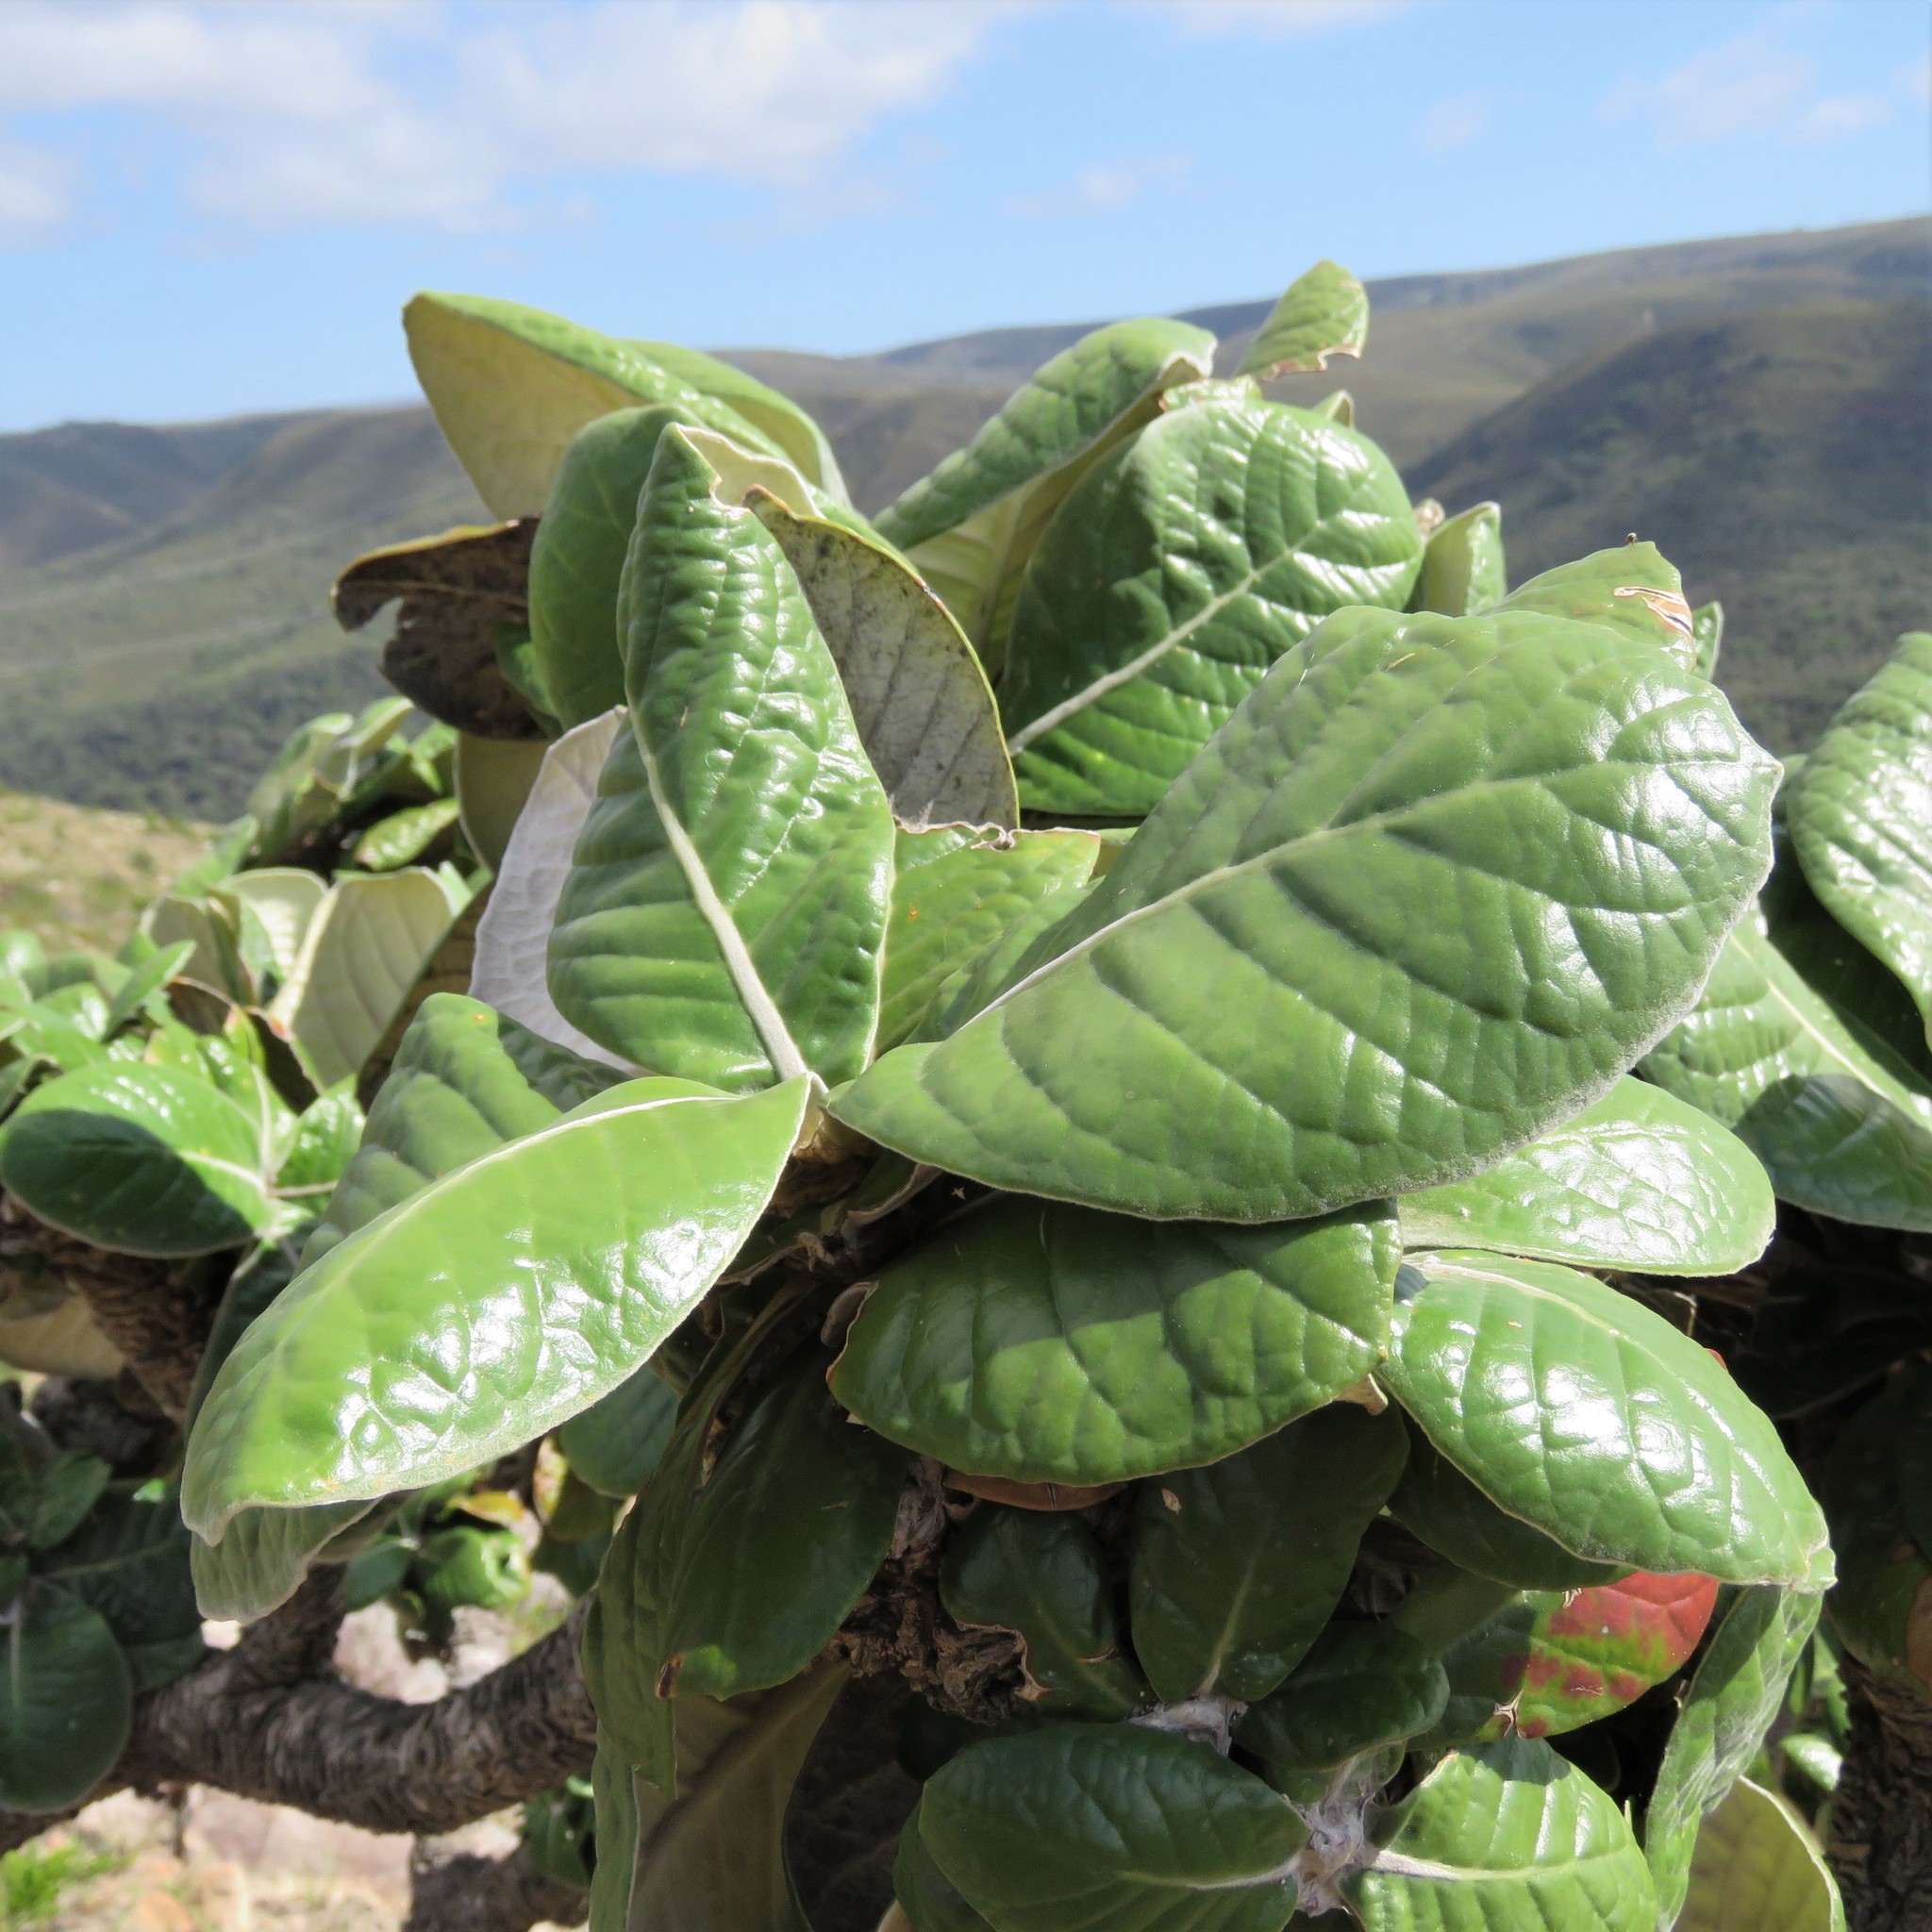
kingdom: Plantae
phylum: Tracheophyta
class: Magnoliopsida
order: Asterales
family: Asteraceae
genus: Oldenburgia
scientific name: Oldenburgia grandis
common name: Suurberg cushion bush
